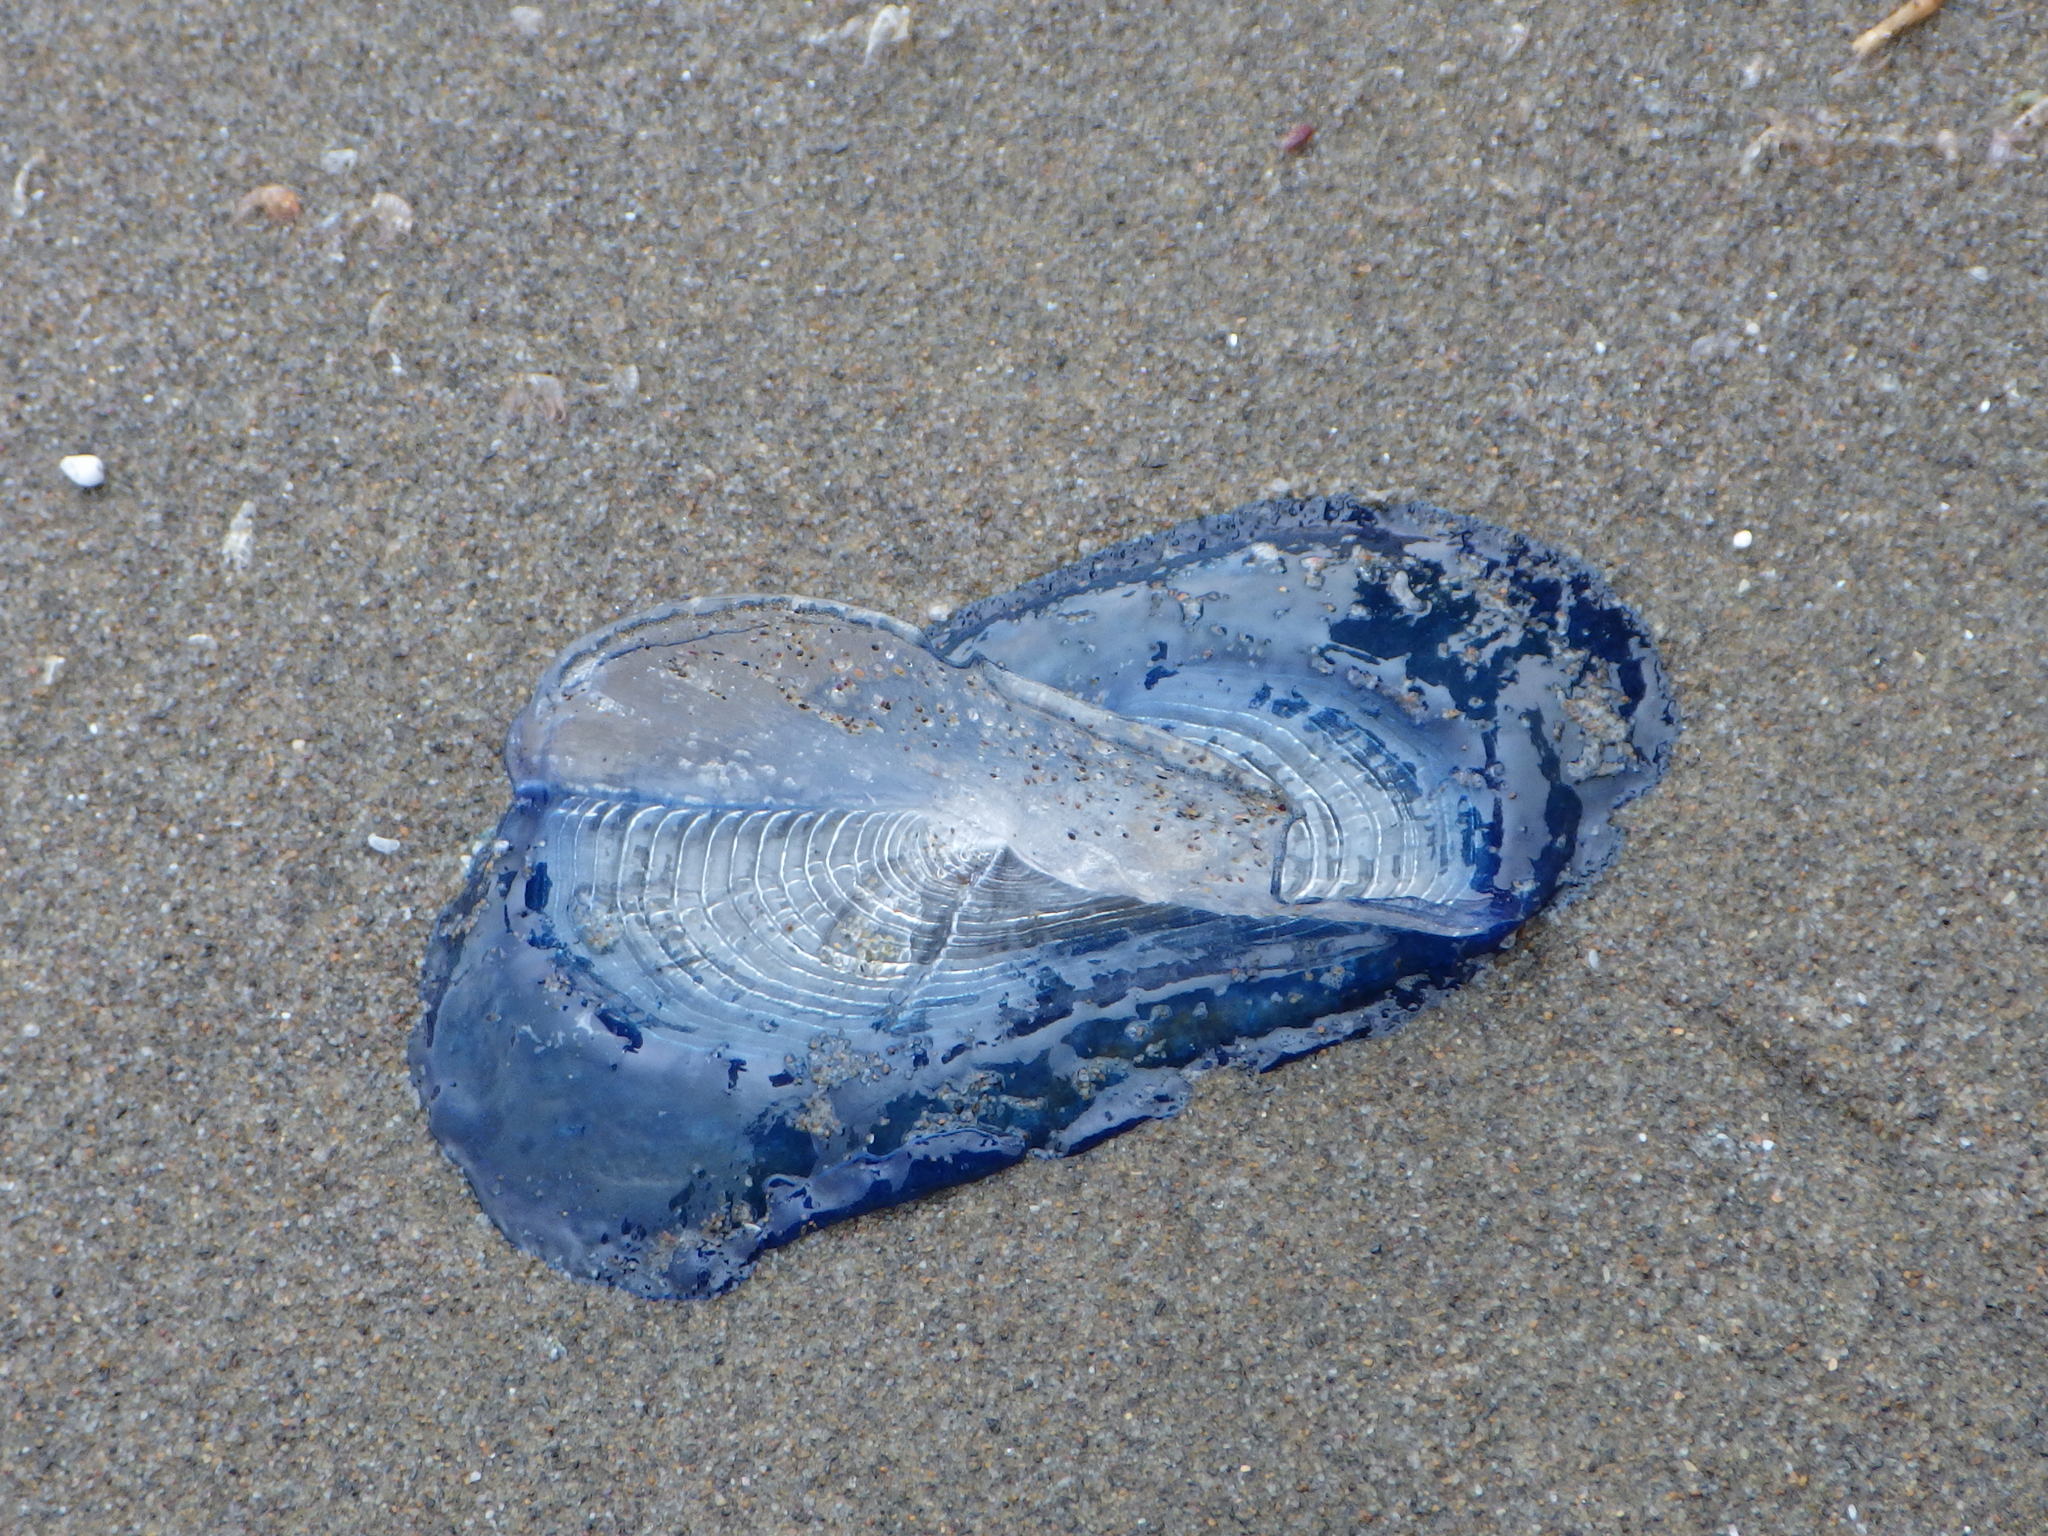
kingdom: Animalia
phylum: Cnidaria
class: Hydrozoa
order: Anthoathecata
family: Porpitidae
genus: Velella
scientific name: Velella velella
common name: By-the-wind-sailor
